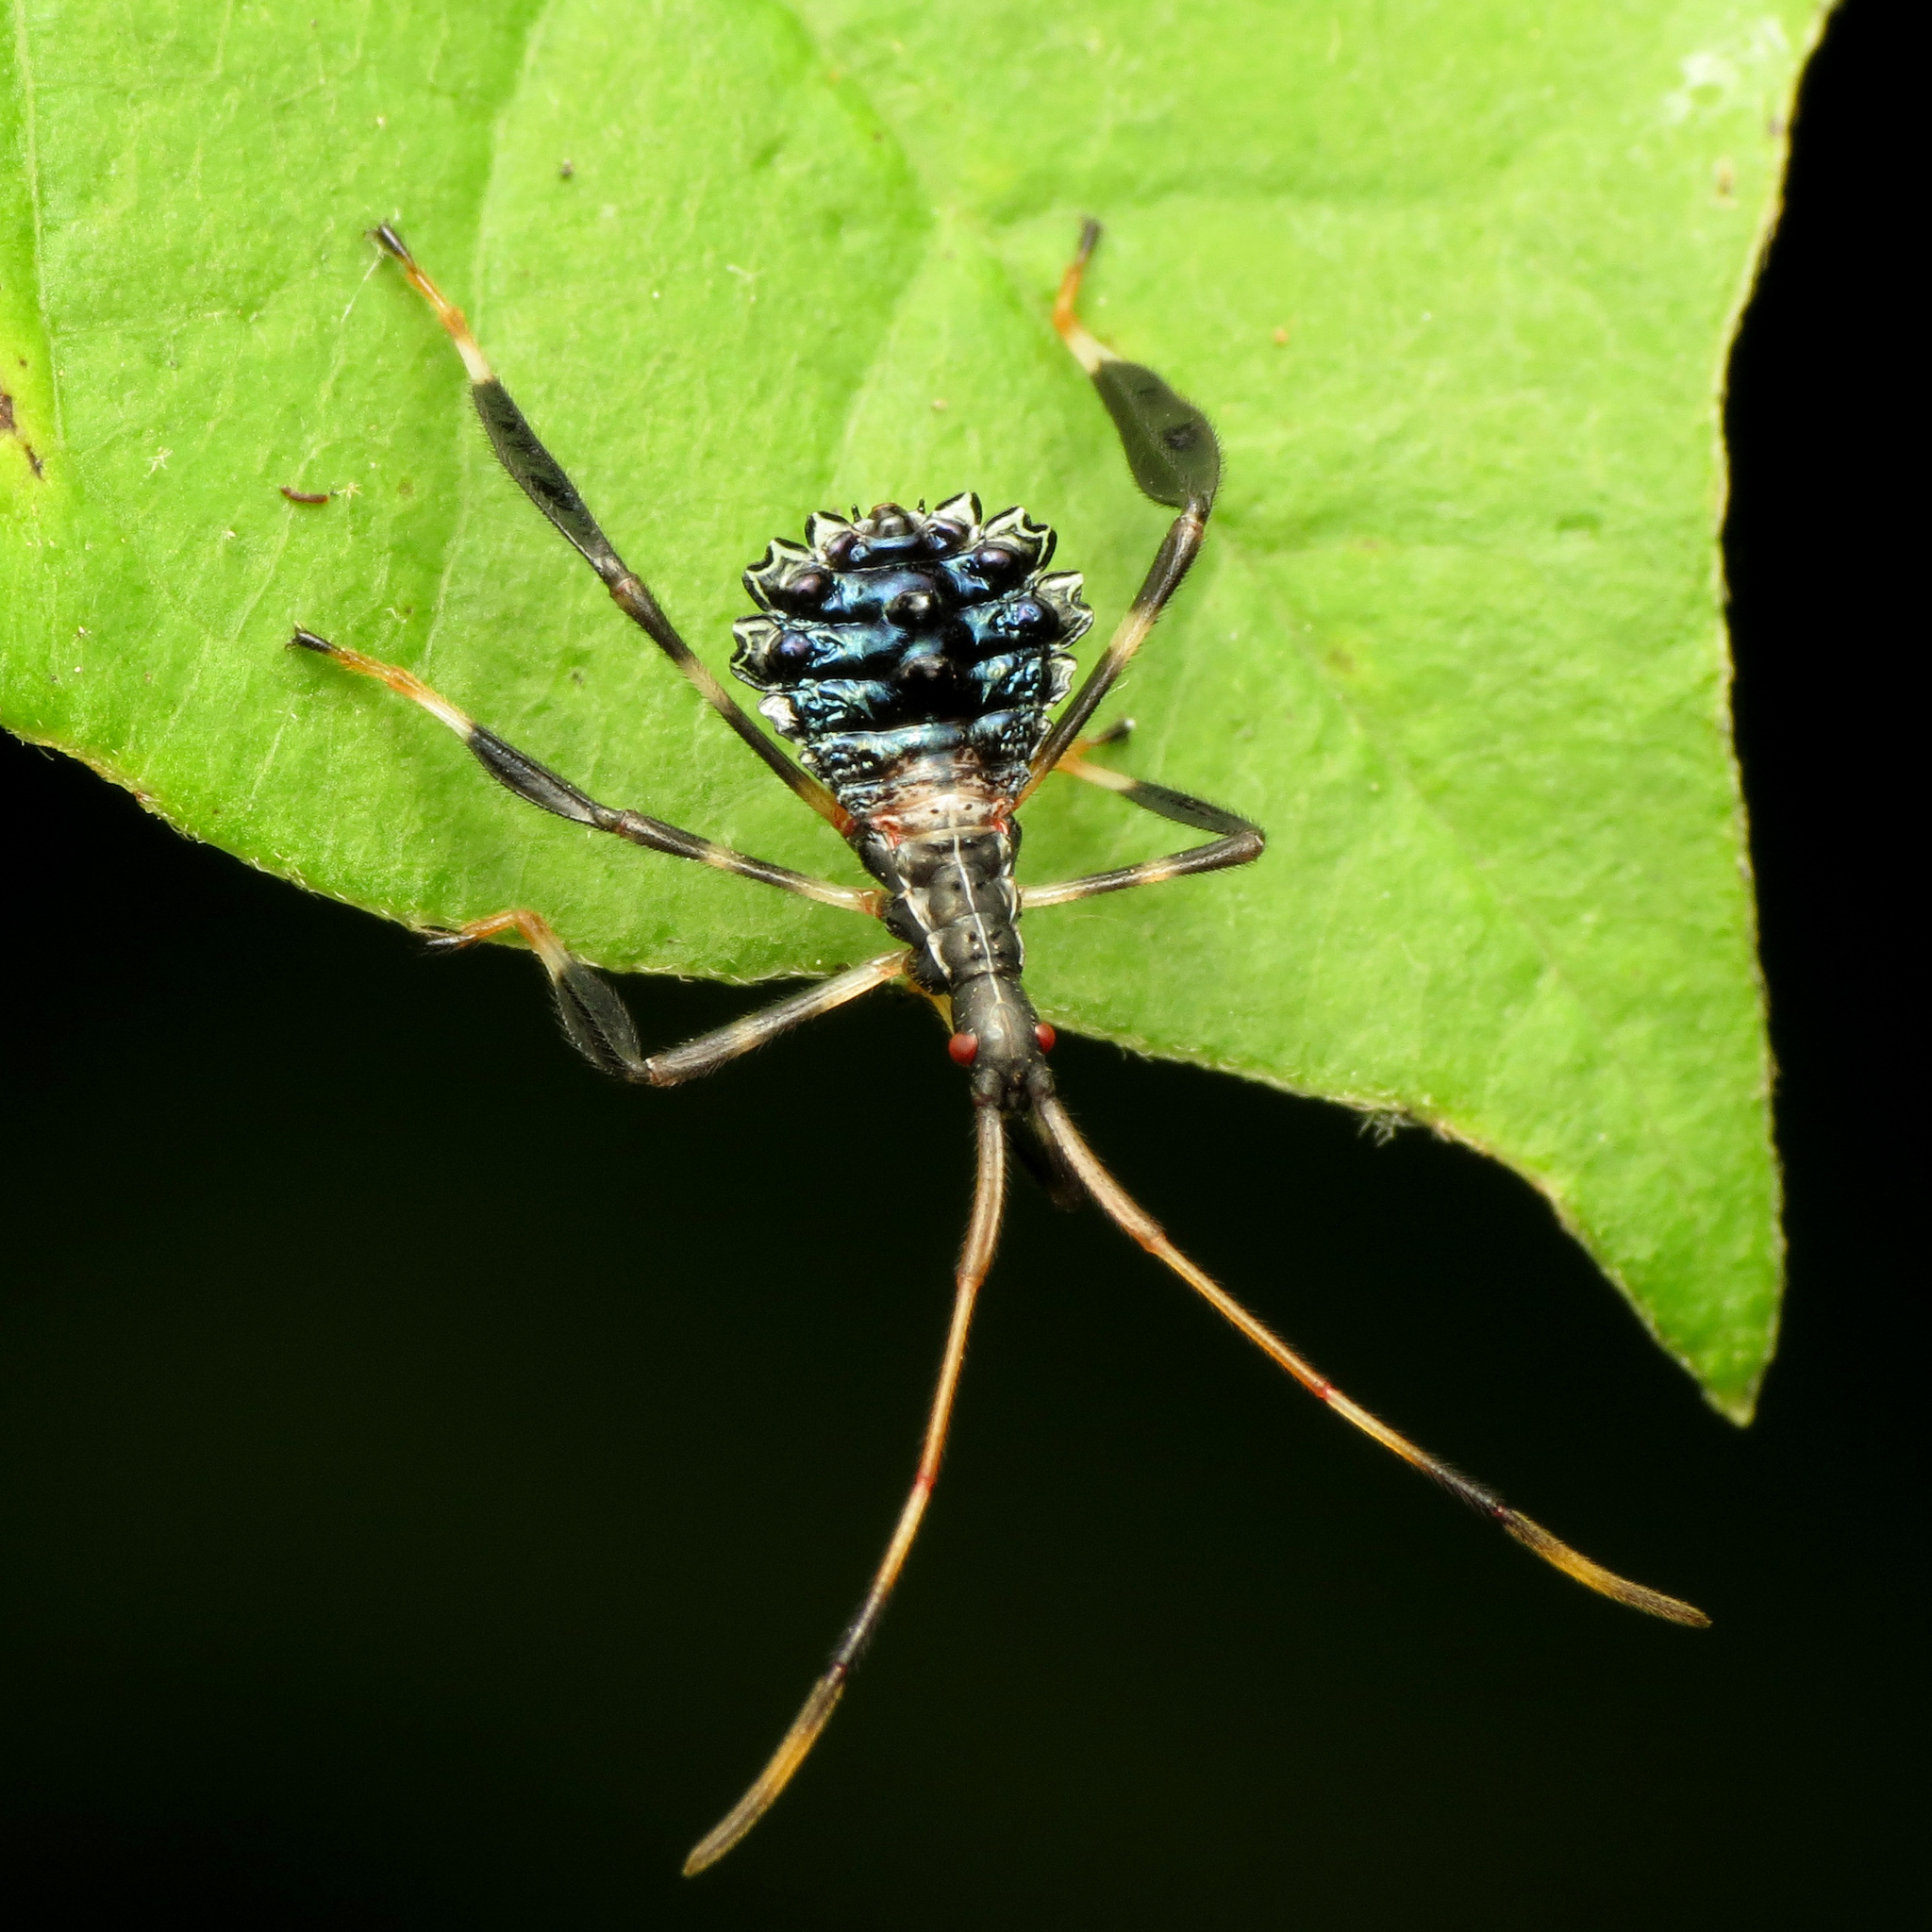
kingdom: Animalia
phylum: Arthropoda
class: Insecta
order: Hemiptera
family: Coreidae
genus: Acanthocephala
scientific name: Acanthocephala terminalis
